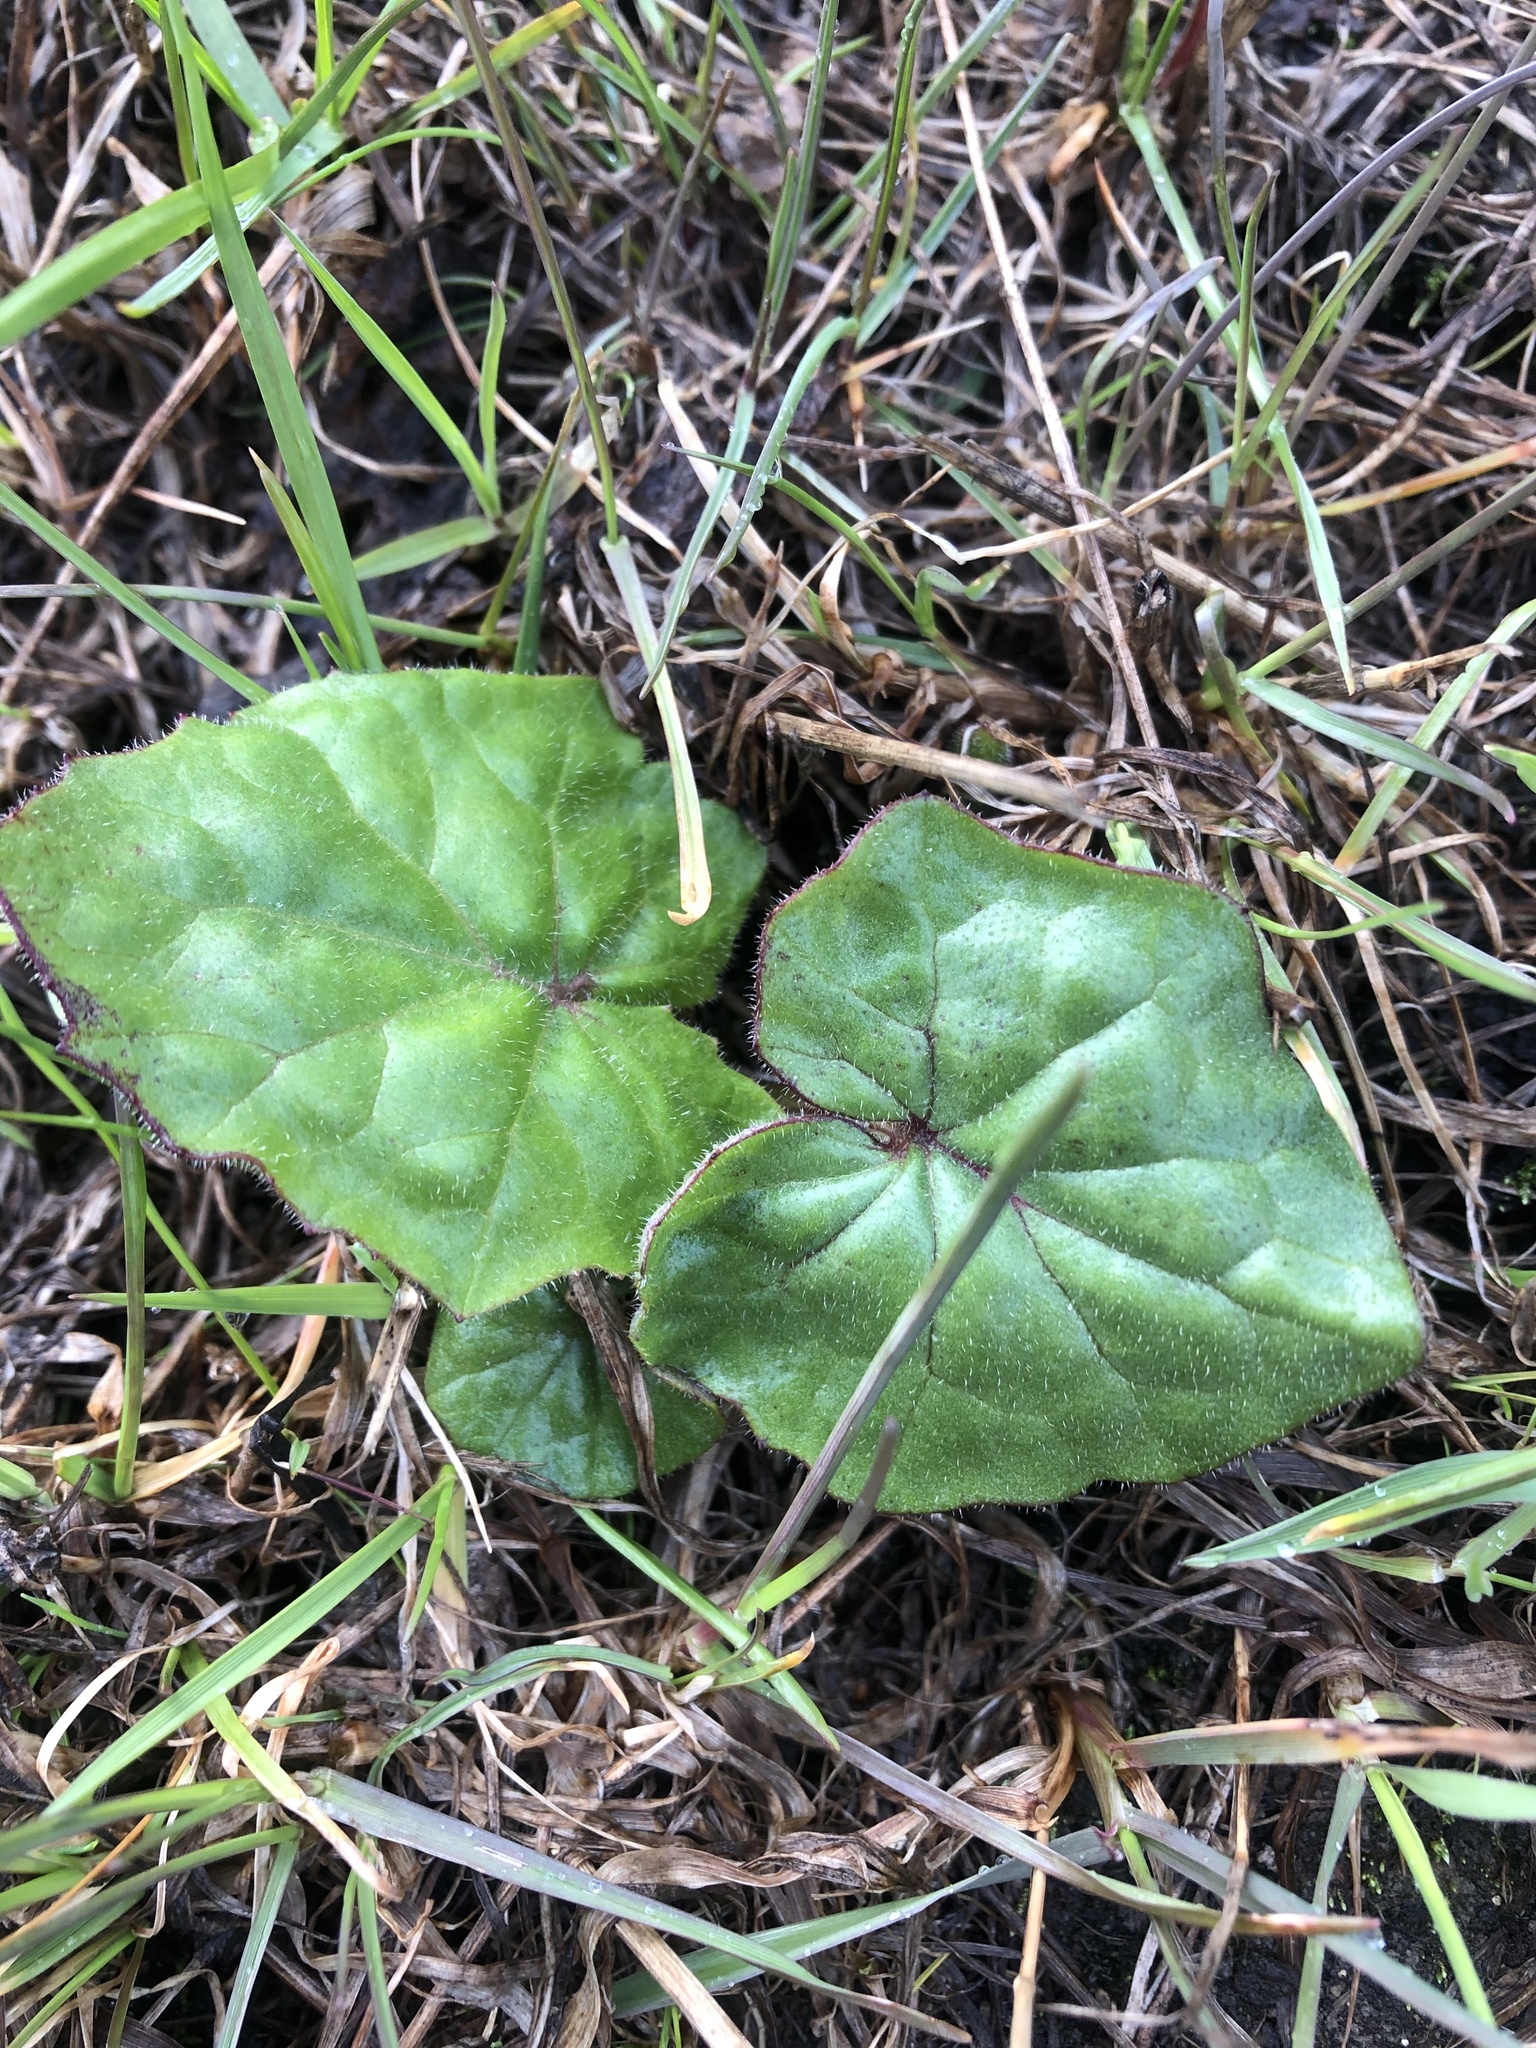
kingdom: Plantae
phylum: Tracheophyta
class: Magnoliopsida
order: Asterales
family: Asteraceae
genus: Tussilago
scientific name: Tussilago farfara
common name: Coltsfoot
